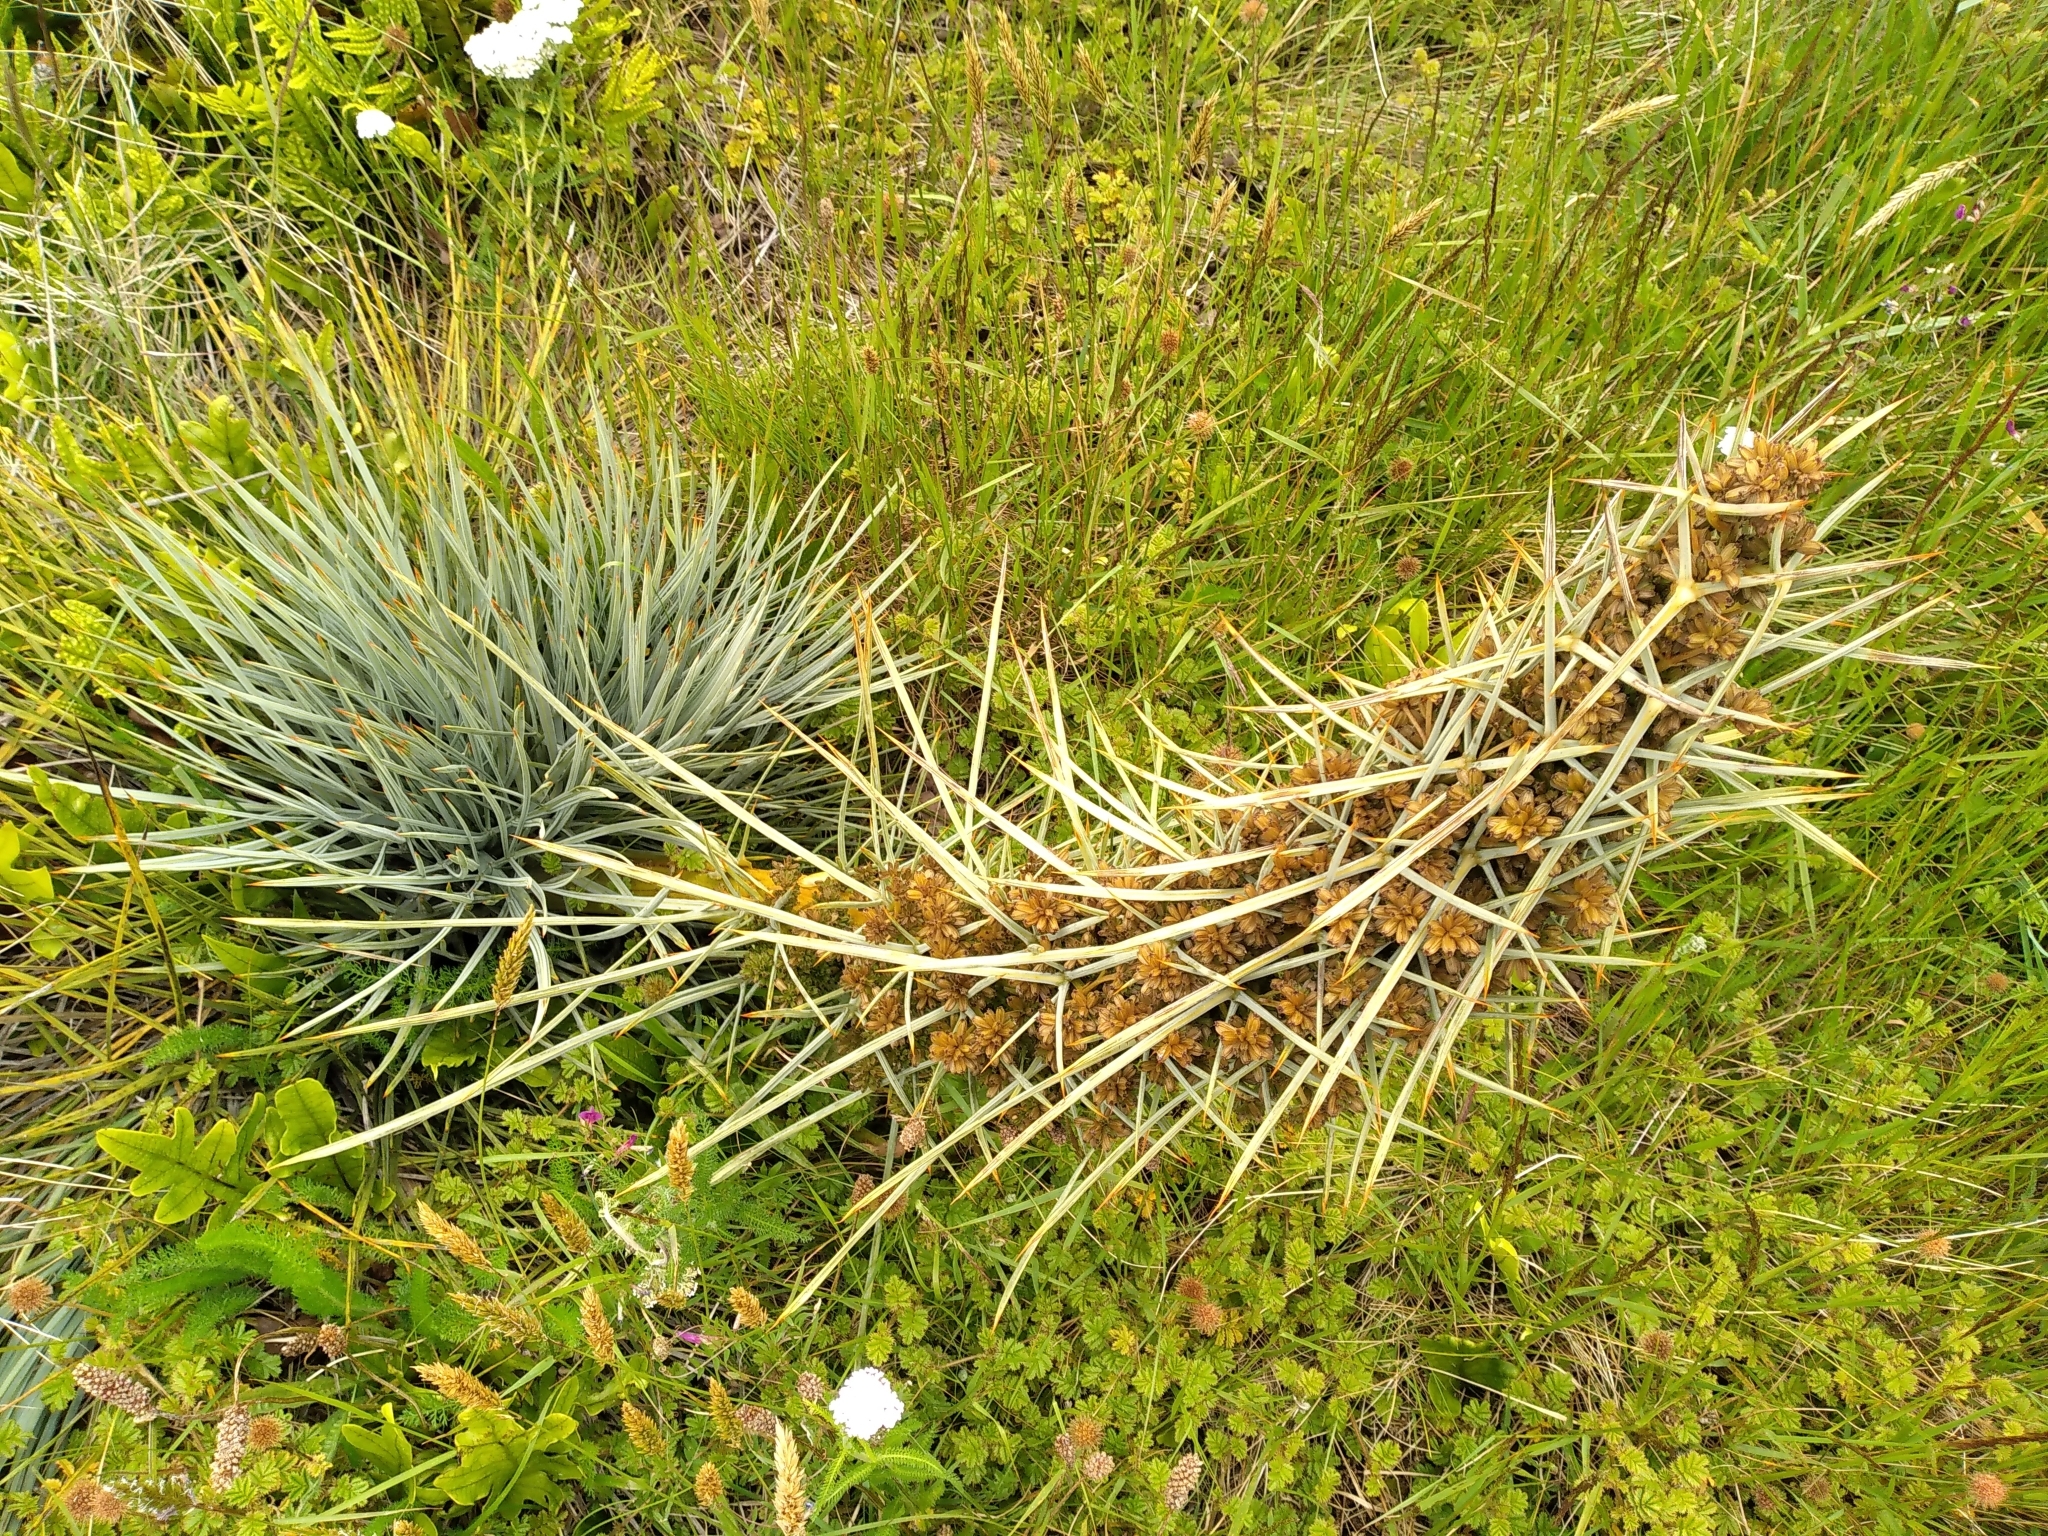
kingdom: Plantae
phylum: Tracheophyta
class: Magnoliopsida
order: Apiales
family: Apiaceae
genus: Aciphylla
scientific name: Aciphylla squarrosa
